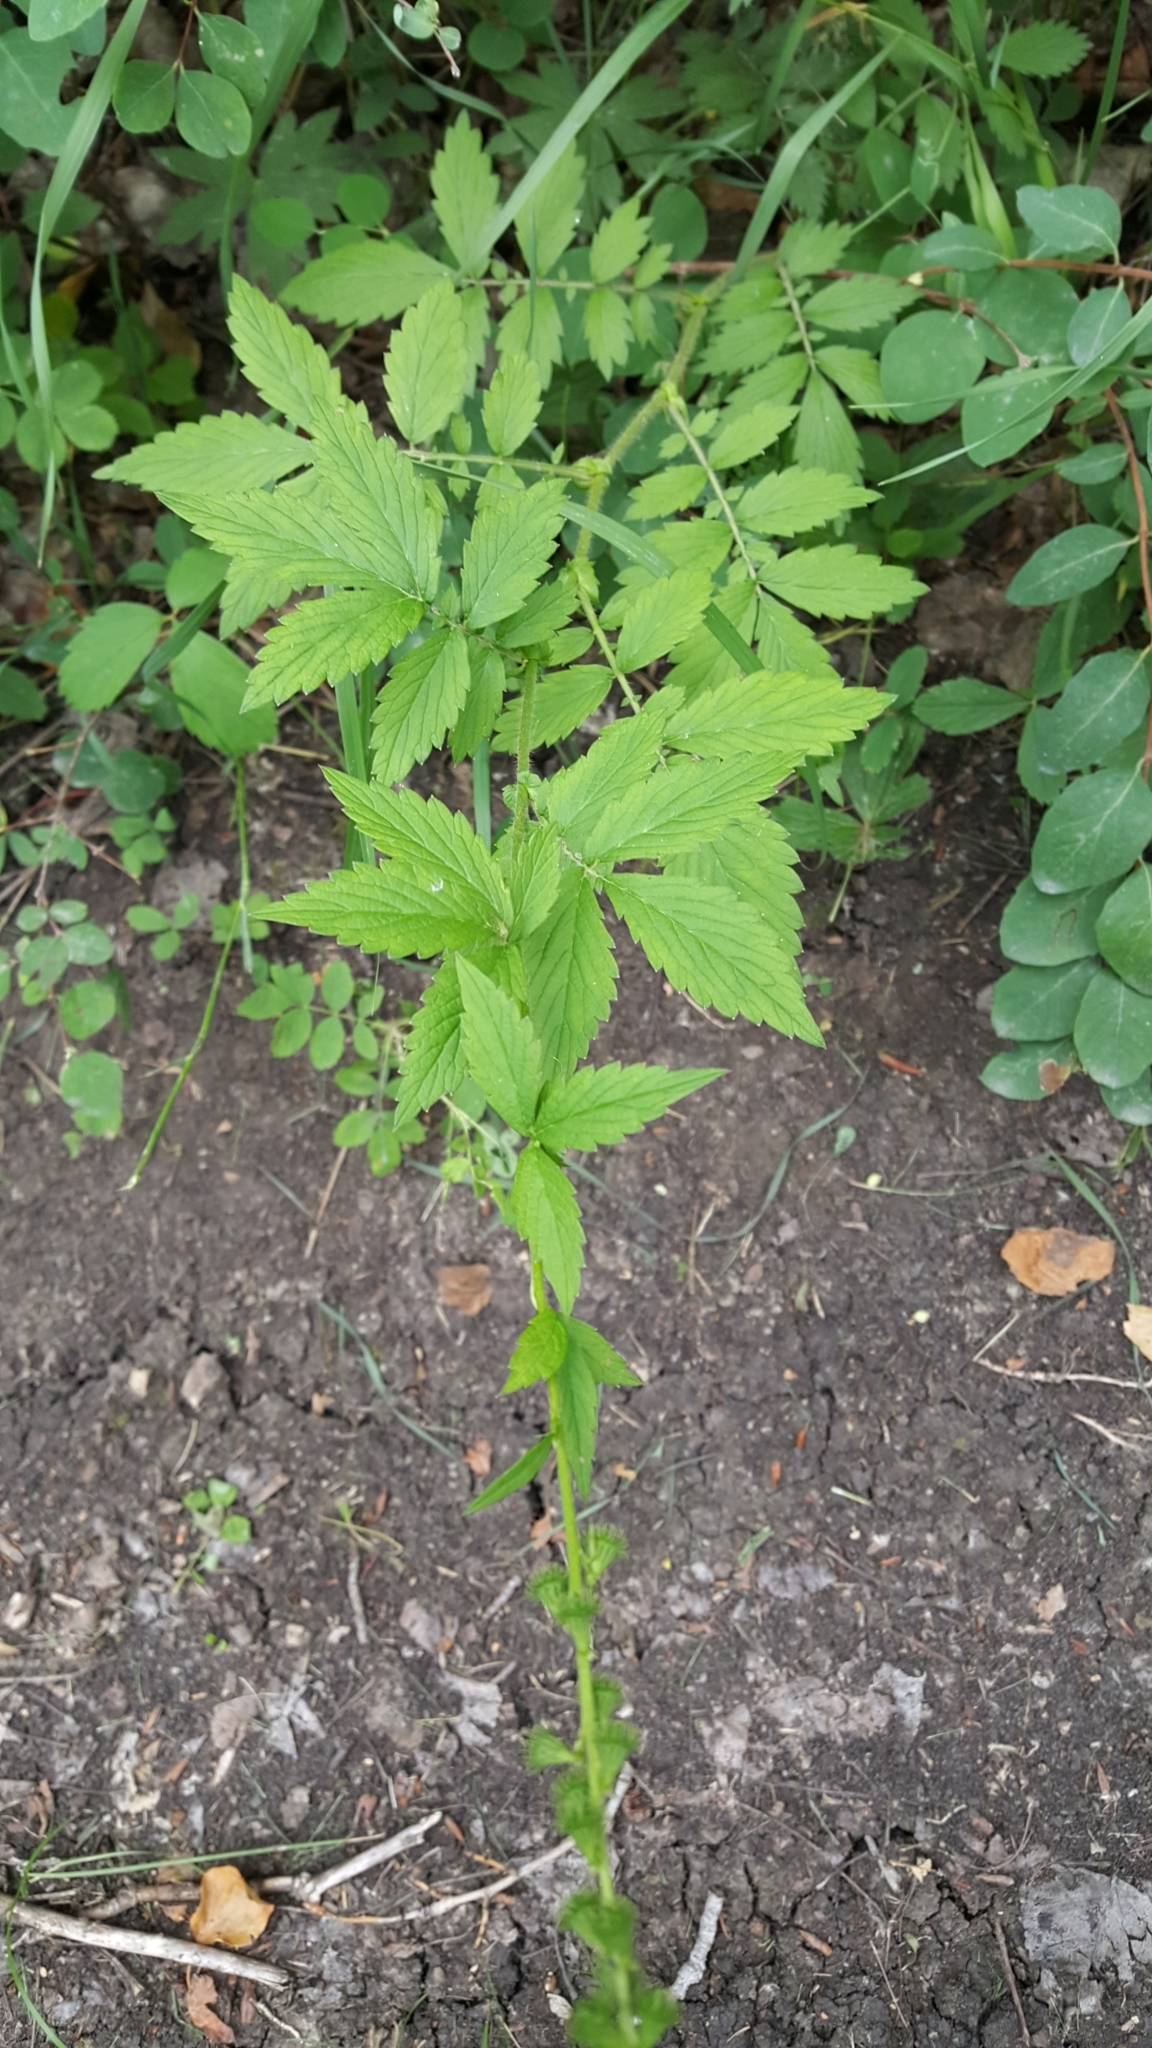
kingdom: Plantae
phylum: Tracheophyta
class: Magnoliopsida
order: Rosales
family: Rosaceae
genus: Agrimonia
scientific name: Agrimonia striata
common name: Britton's agrimony
